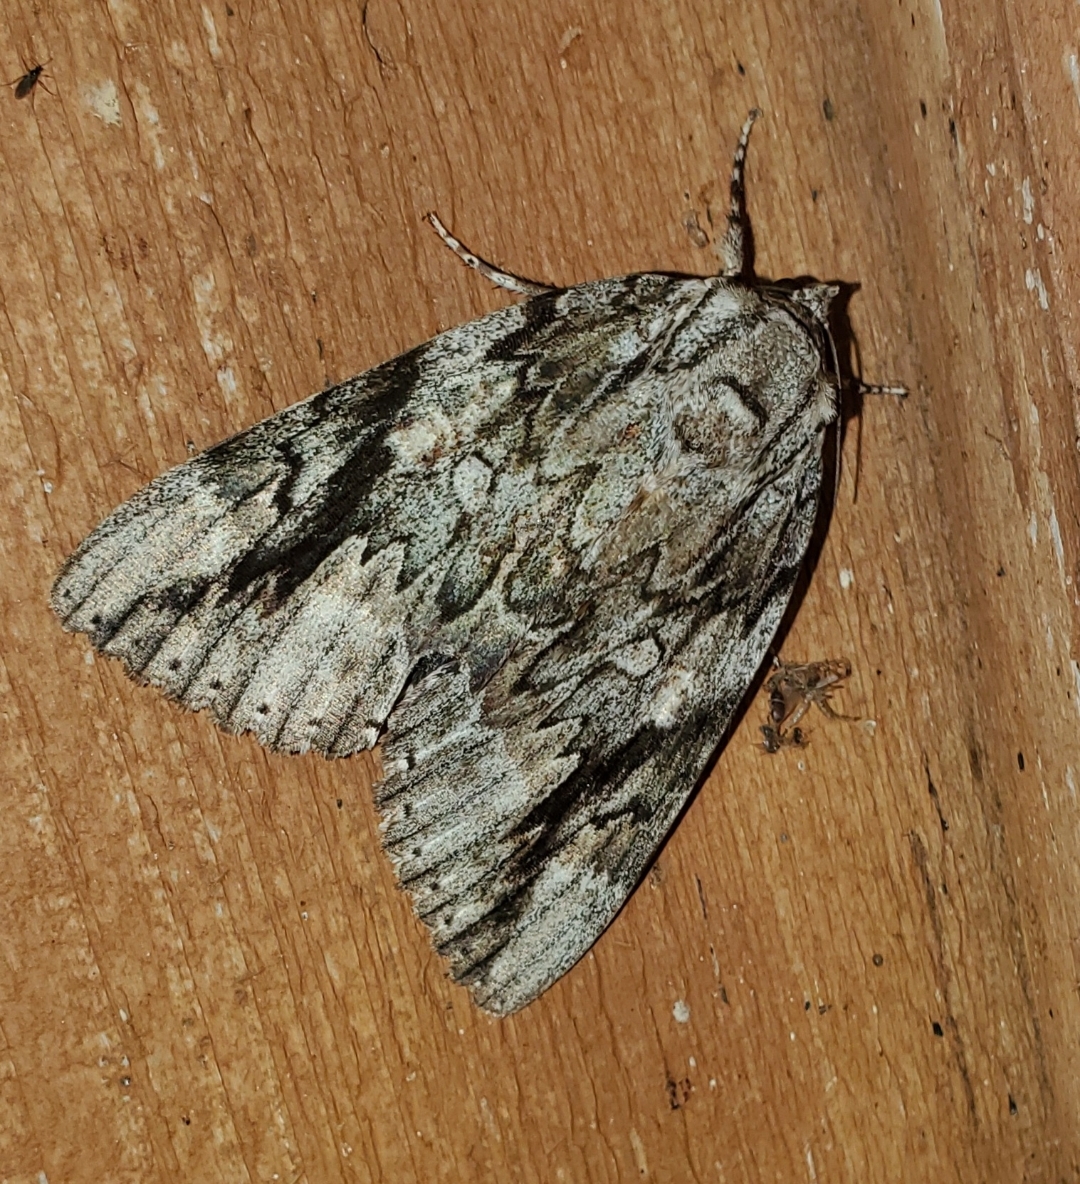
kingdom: Animalia
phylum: Arthropoda
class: Insecta
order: Lepidoptera
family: Erebidae
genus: Catocala
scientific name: Catocala maestosa
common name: Sad underwing
